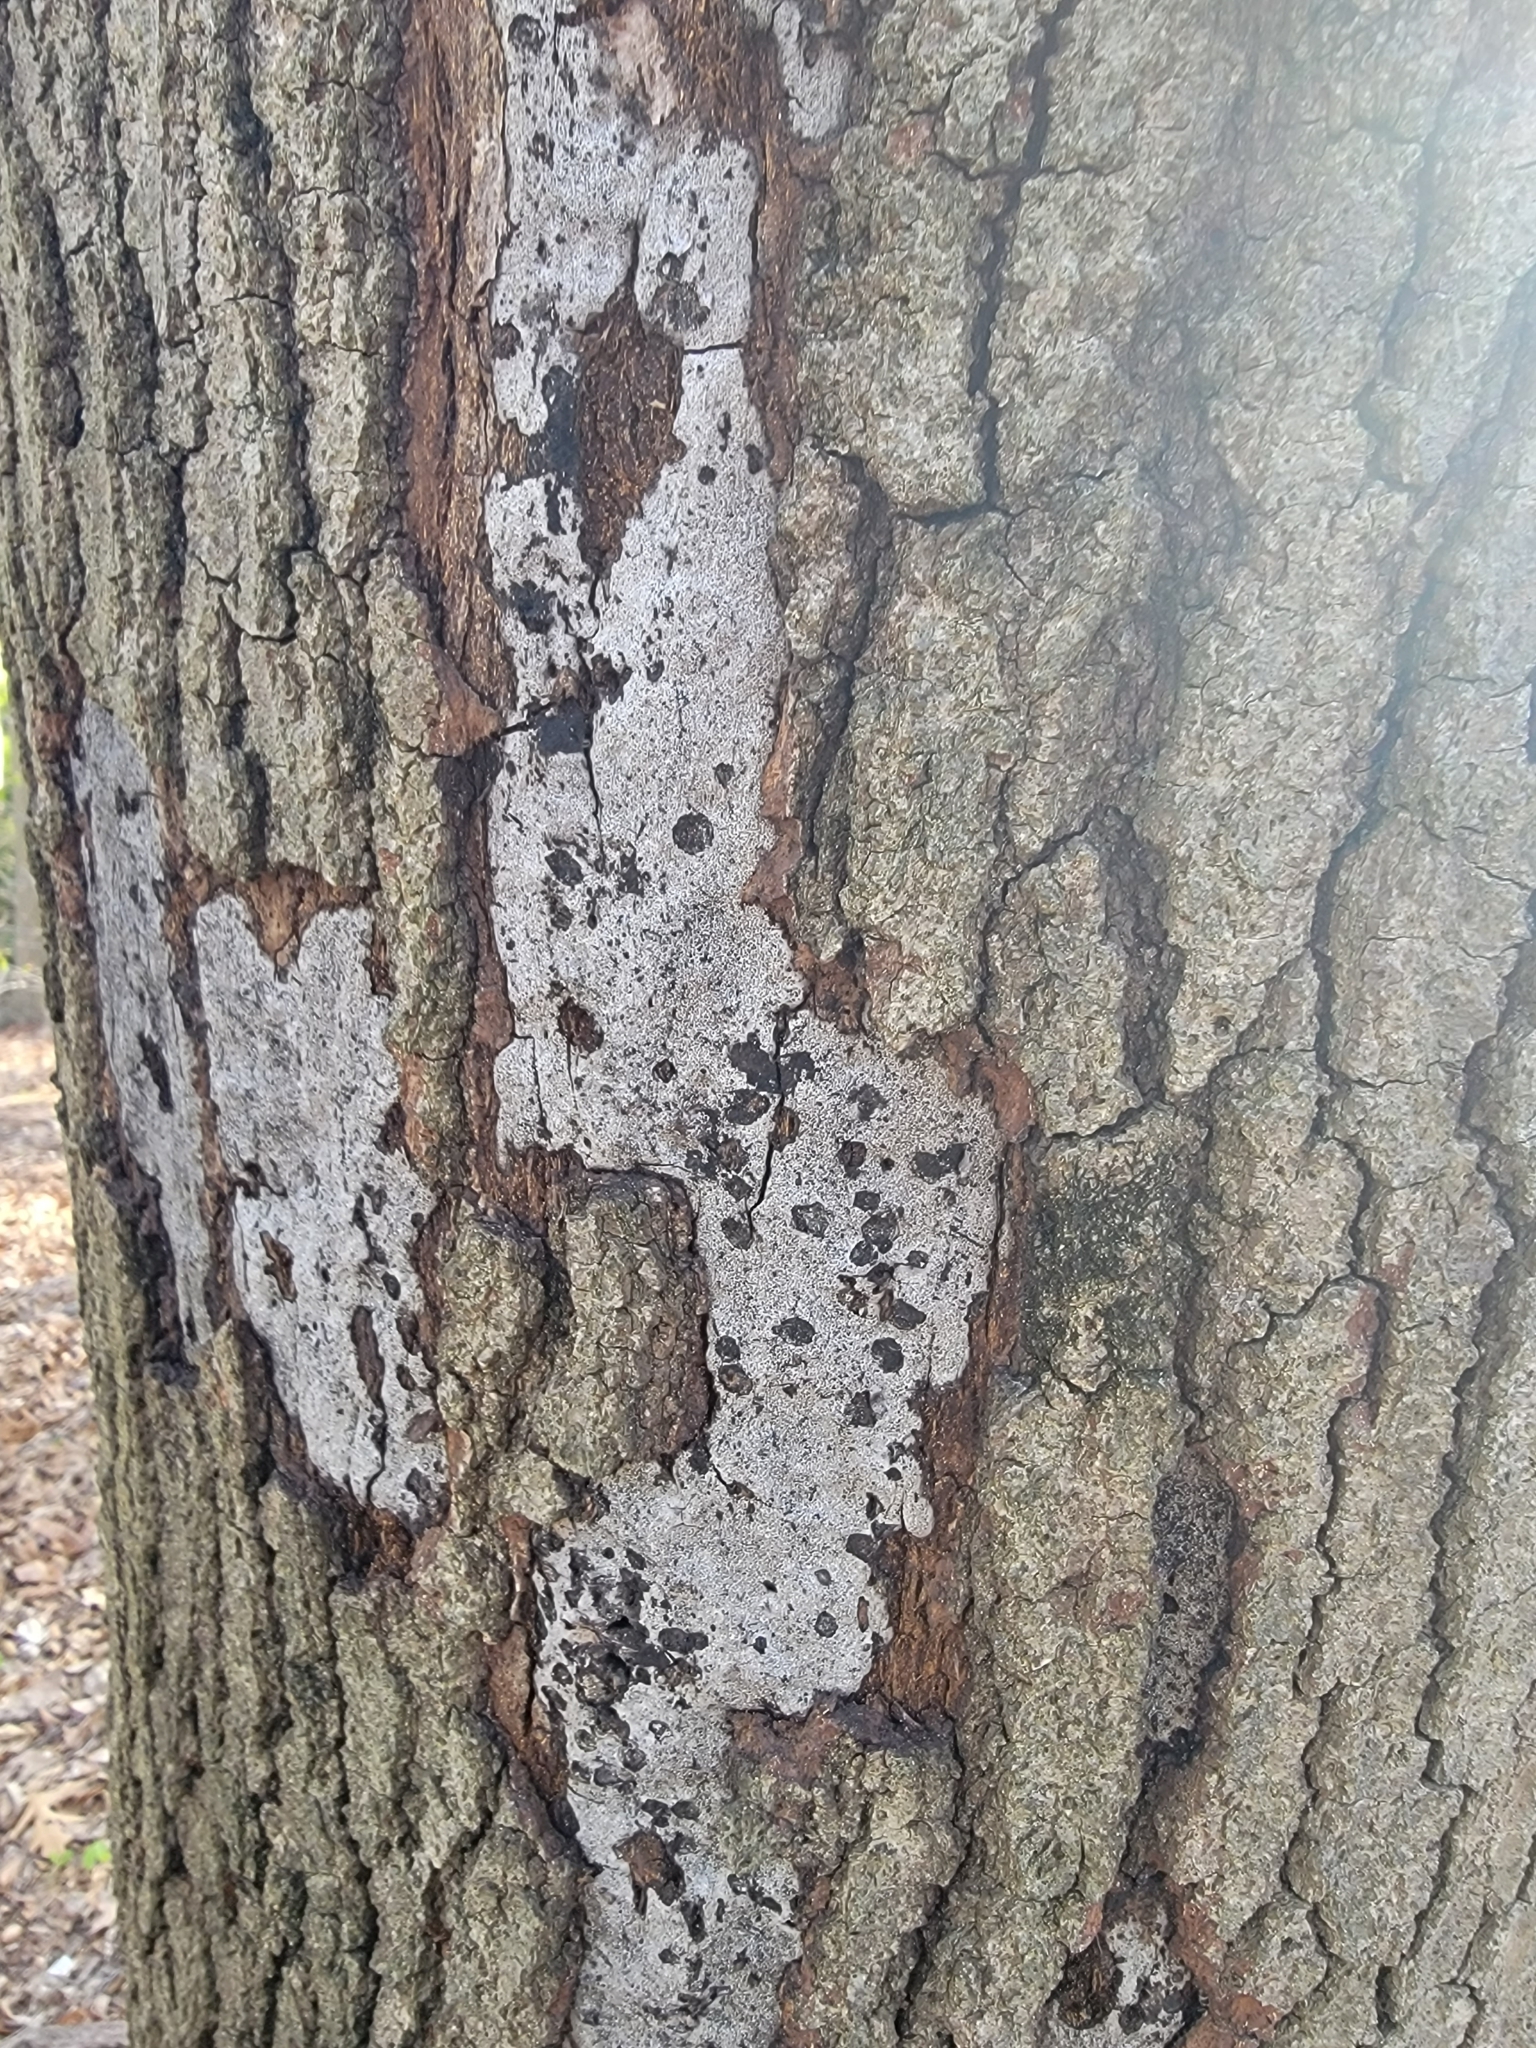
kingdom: Fungi
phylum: Ascomycota
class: Sordariomycetes
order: Xylariales
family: Graphostromataceae
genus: Biscogniauxia
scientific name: Biscogniauxia atropunctata
